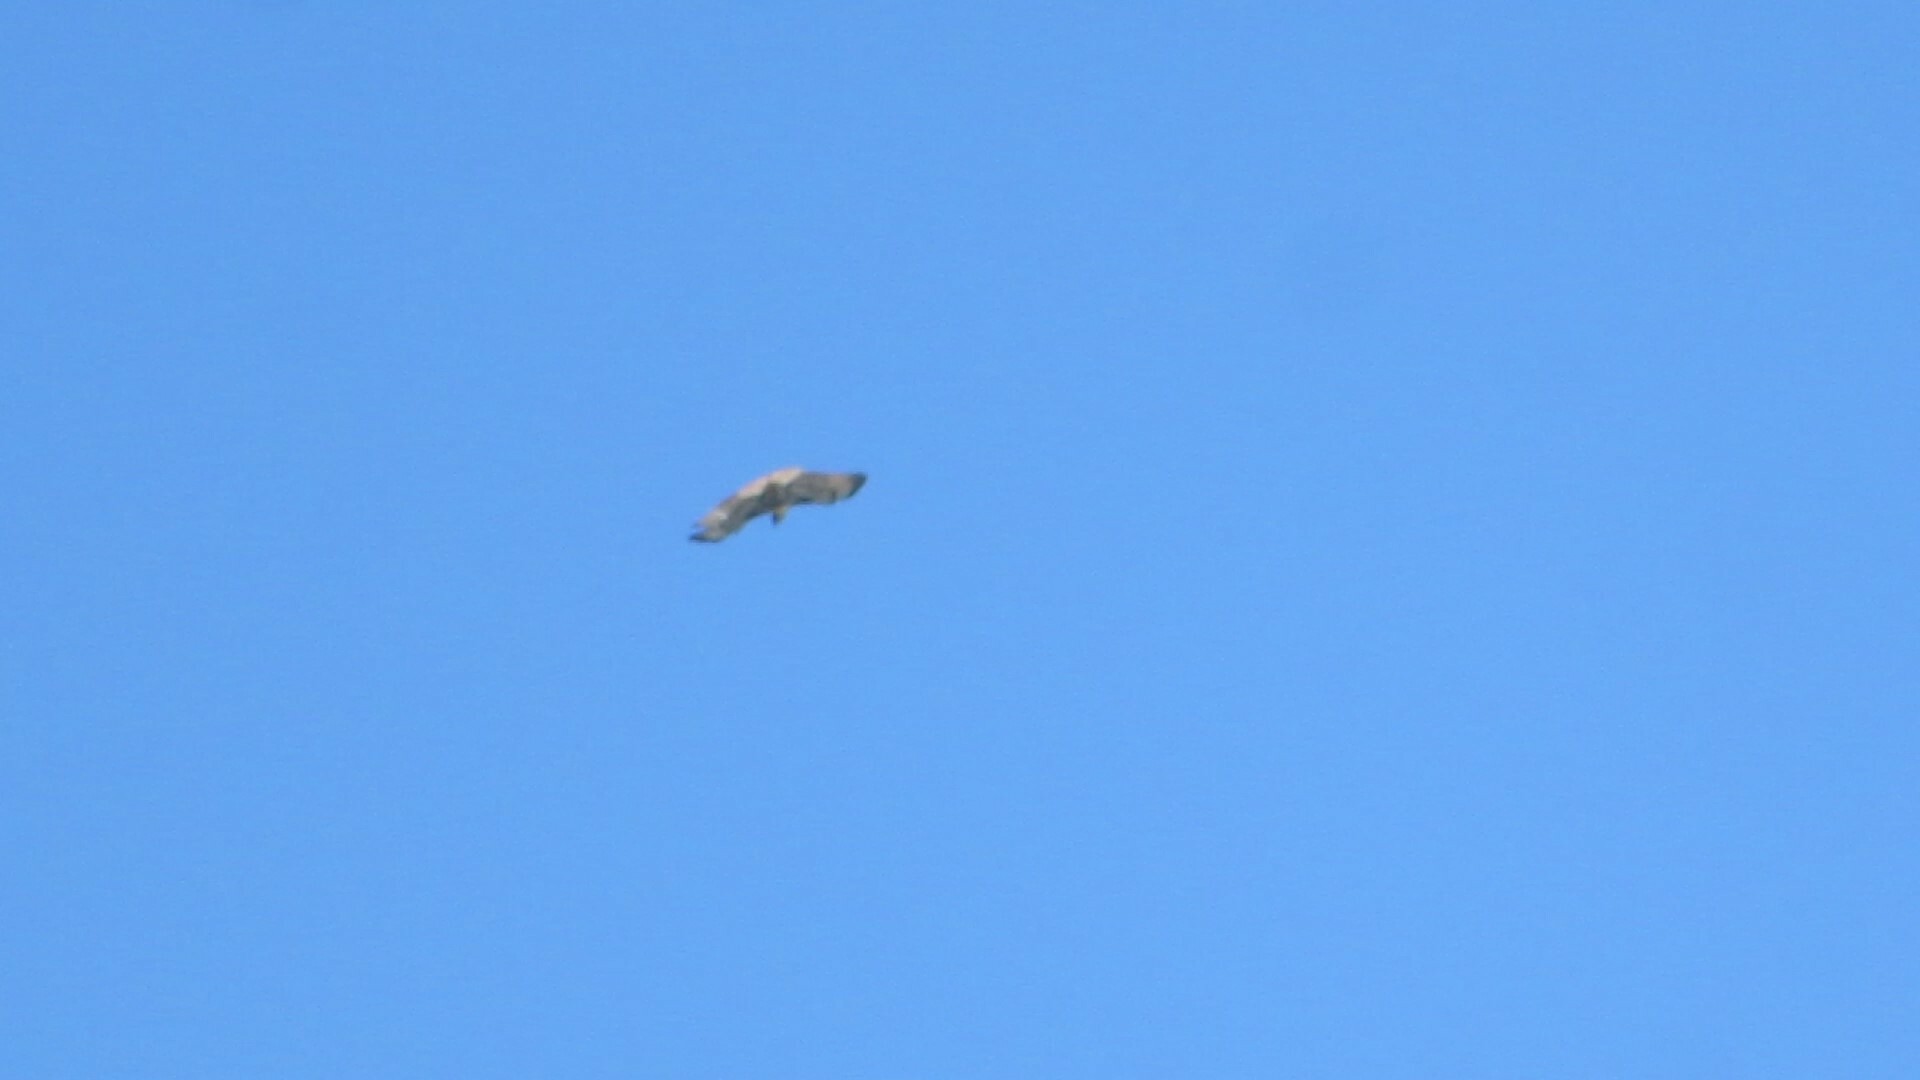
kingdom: Animalia
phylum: Chordata
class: Aves
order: Accipitriformes
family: Accipitridae
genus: Buteo
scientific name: Buteo jamaicensis
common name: Red-tailed hawk
